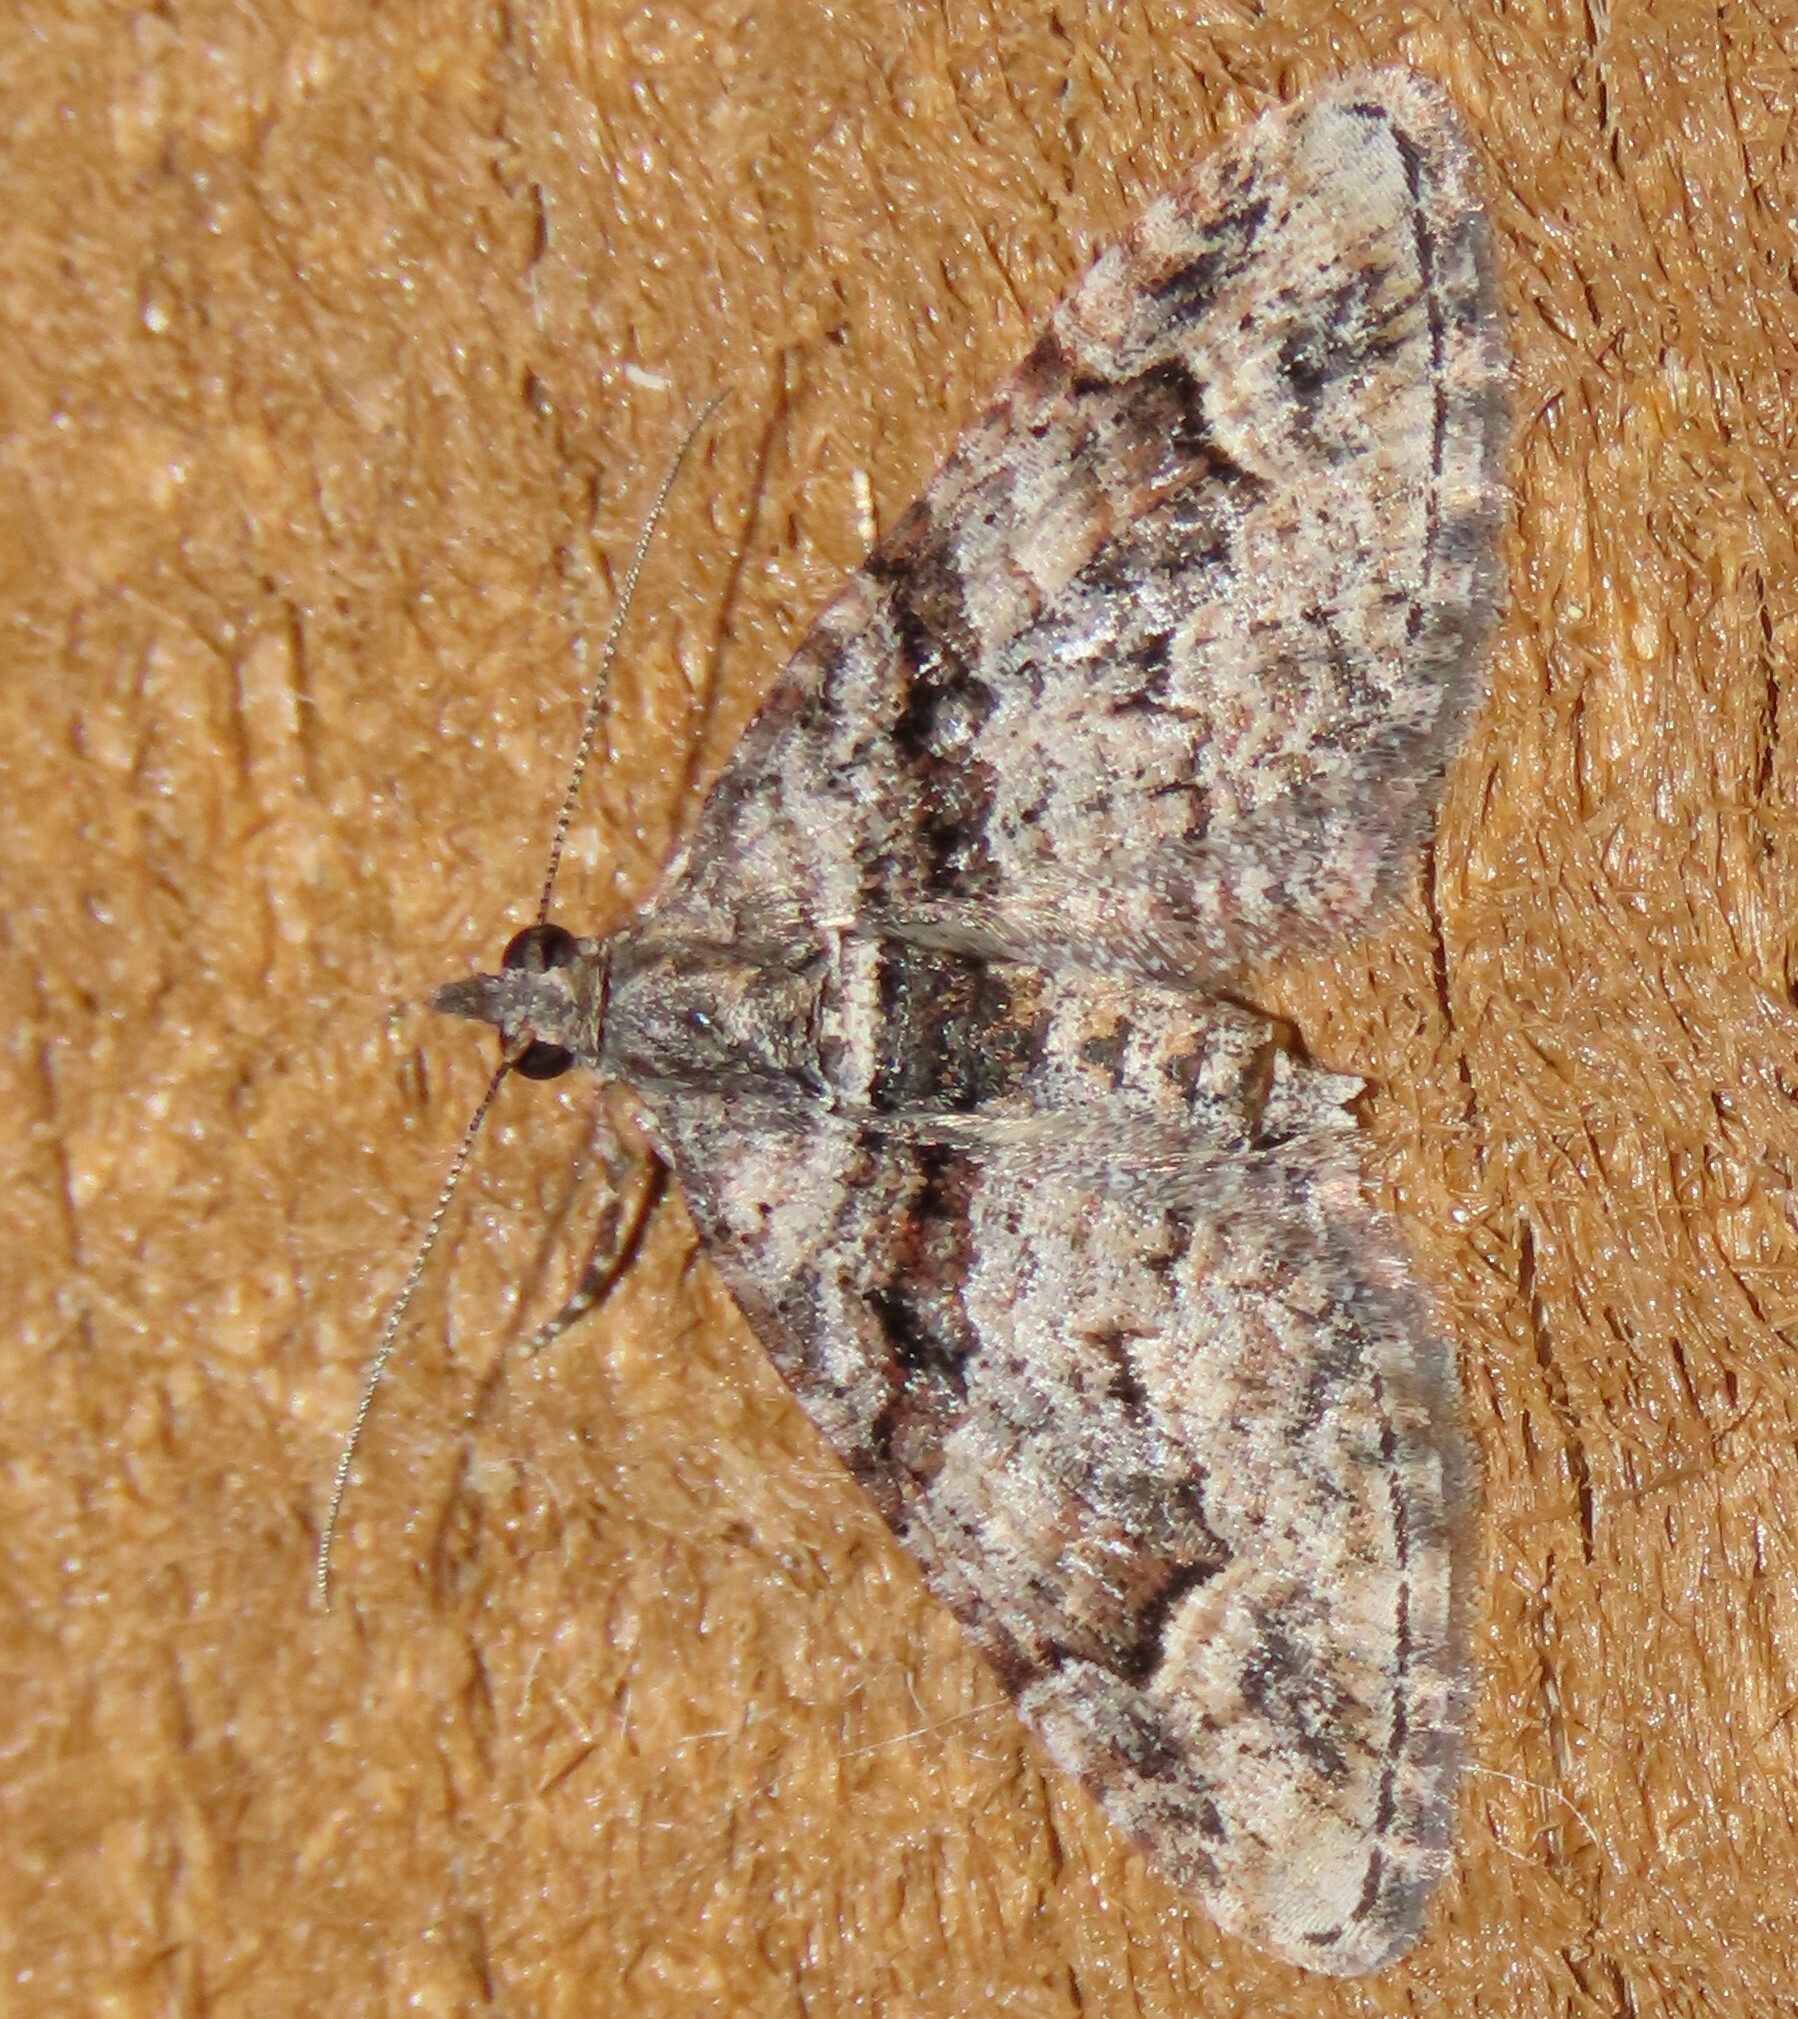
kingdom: Animalia
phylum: Arthropoda
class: Insecta
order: Lepidoptera
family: Geometridae
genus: Phrissogonus
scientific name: Phrissogonus laticostata
